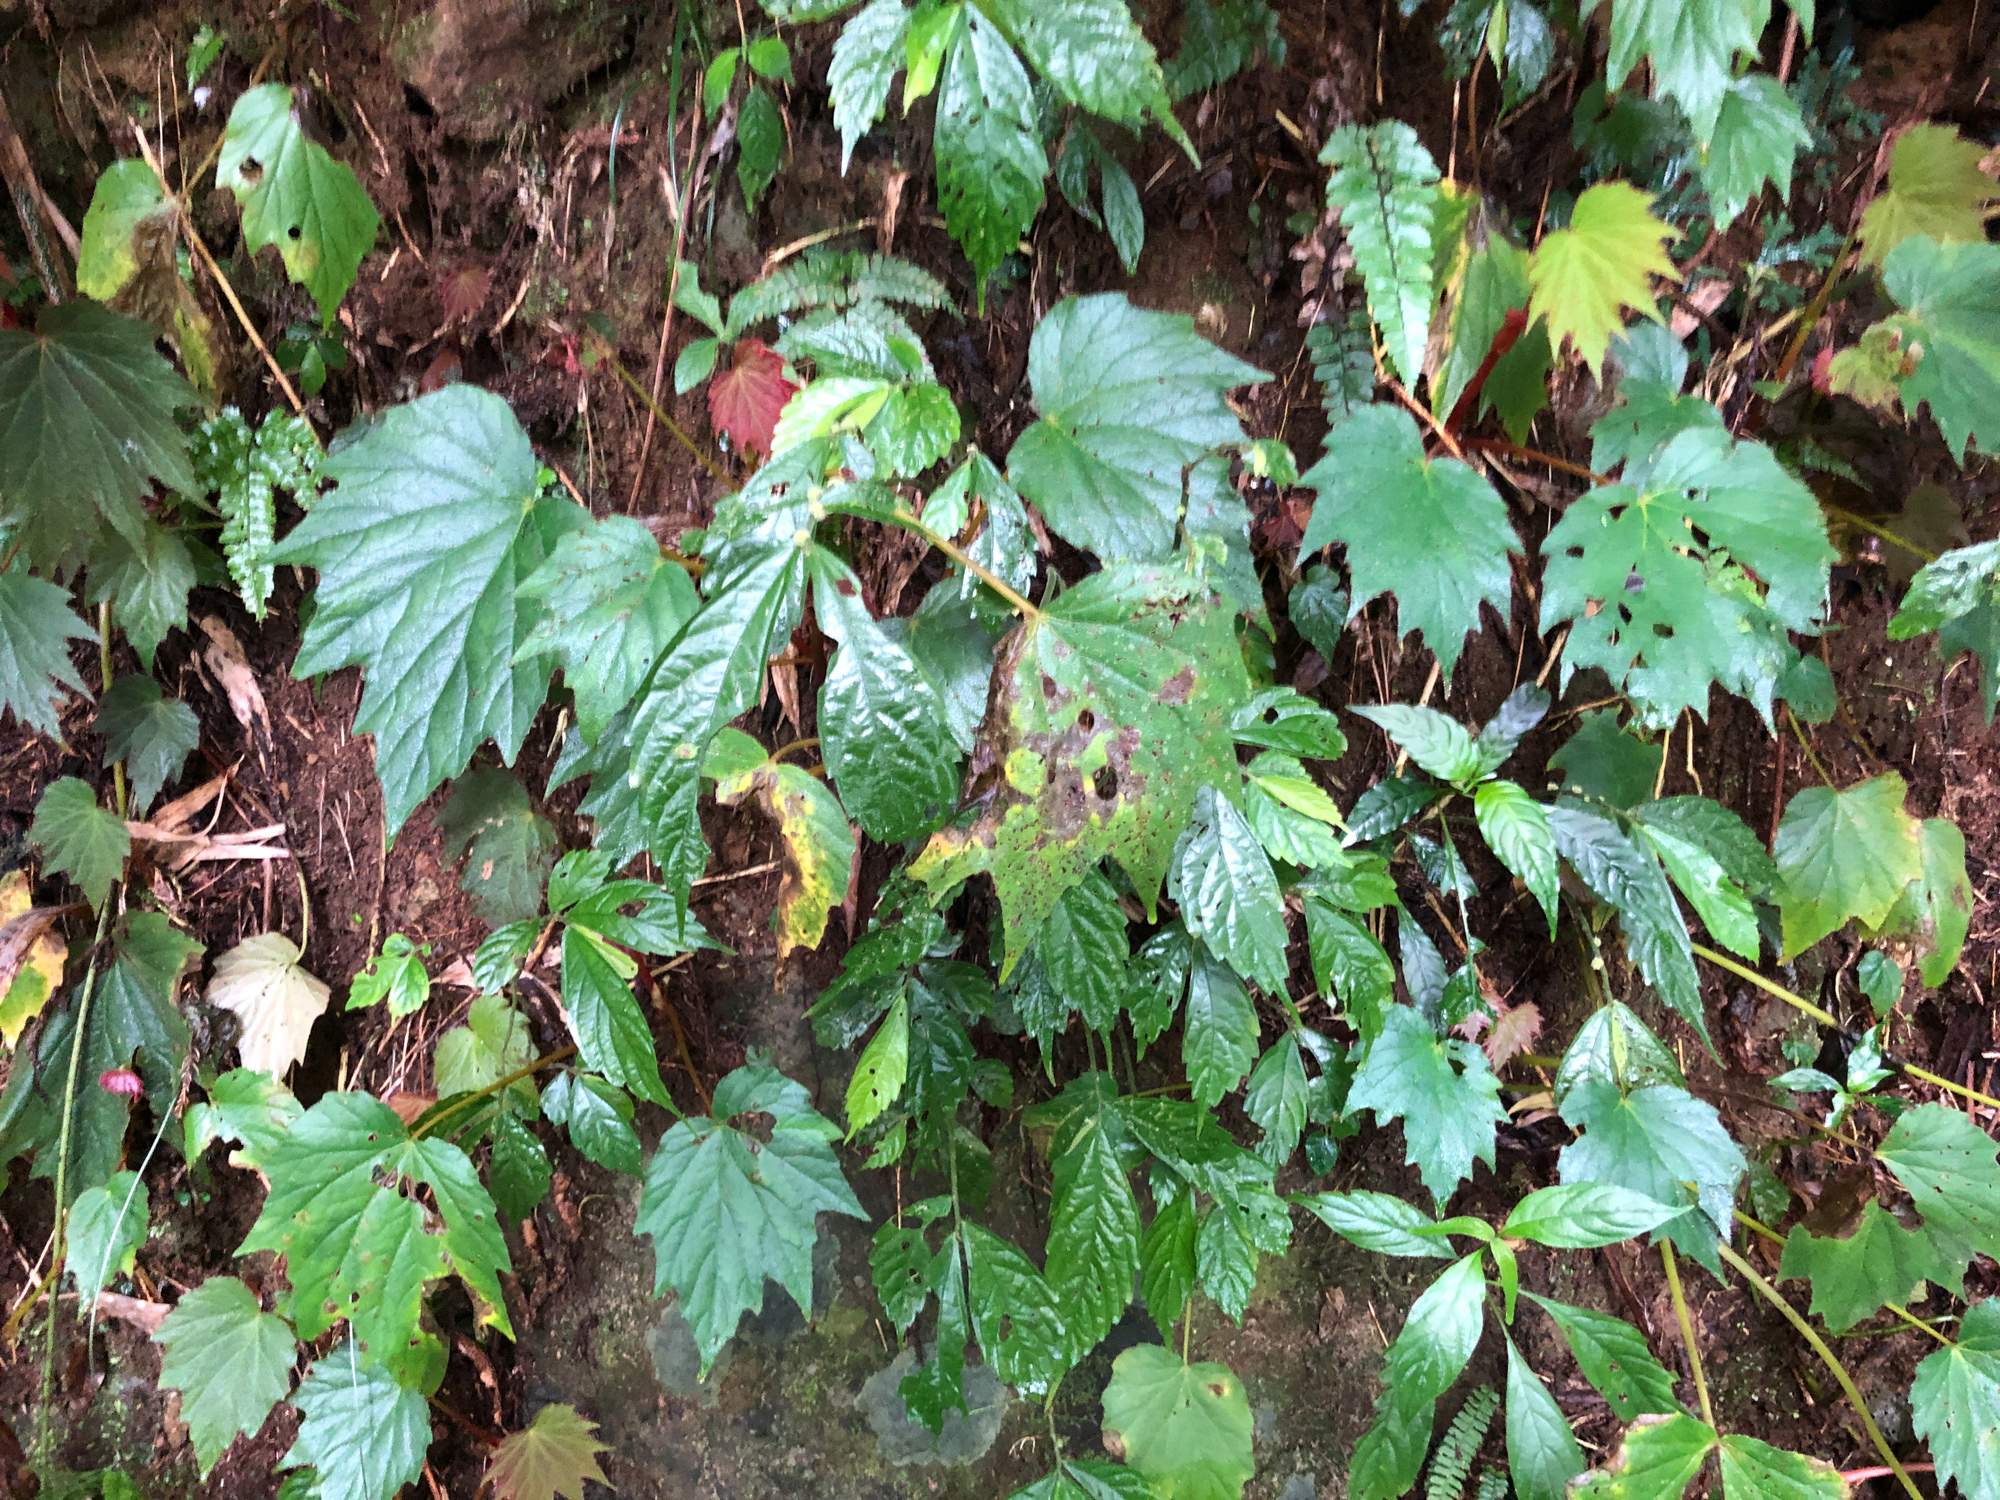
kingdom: Plantae
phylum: Tracheophyta
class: Magnoliopsida
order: Cucurbitales
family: Begoniaceae
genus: Begonia
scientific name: Begonia palmata
